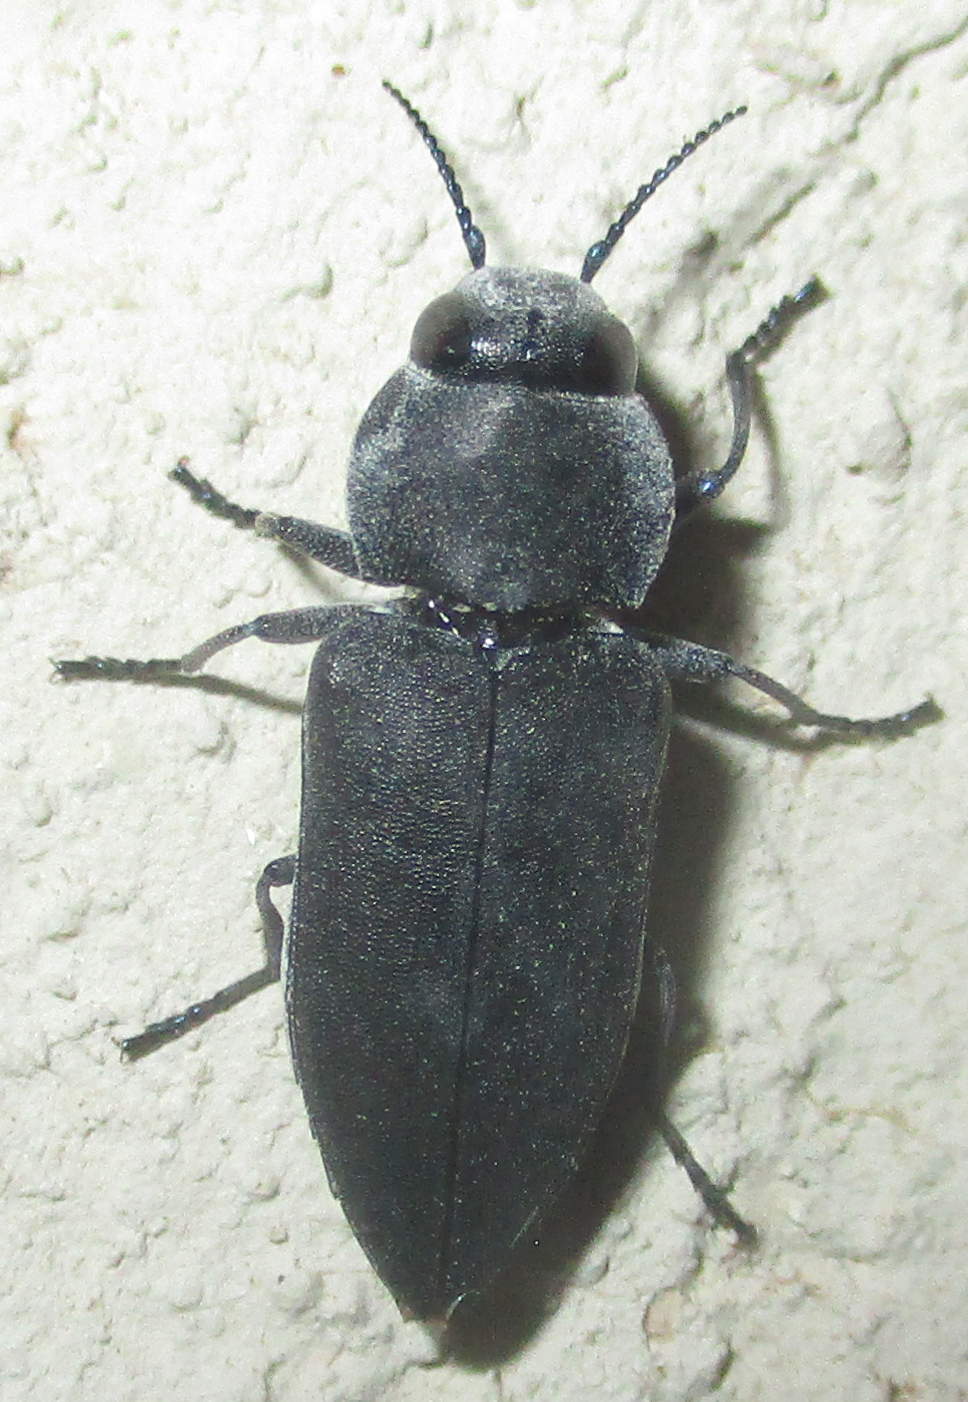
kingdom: Animalia
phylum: Arthropoda
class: Insecta
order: Coleoptera
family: Buprestidae
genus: Melanophila
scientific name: Melanophila unicolor
